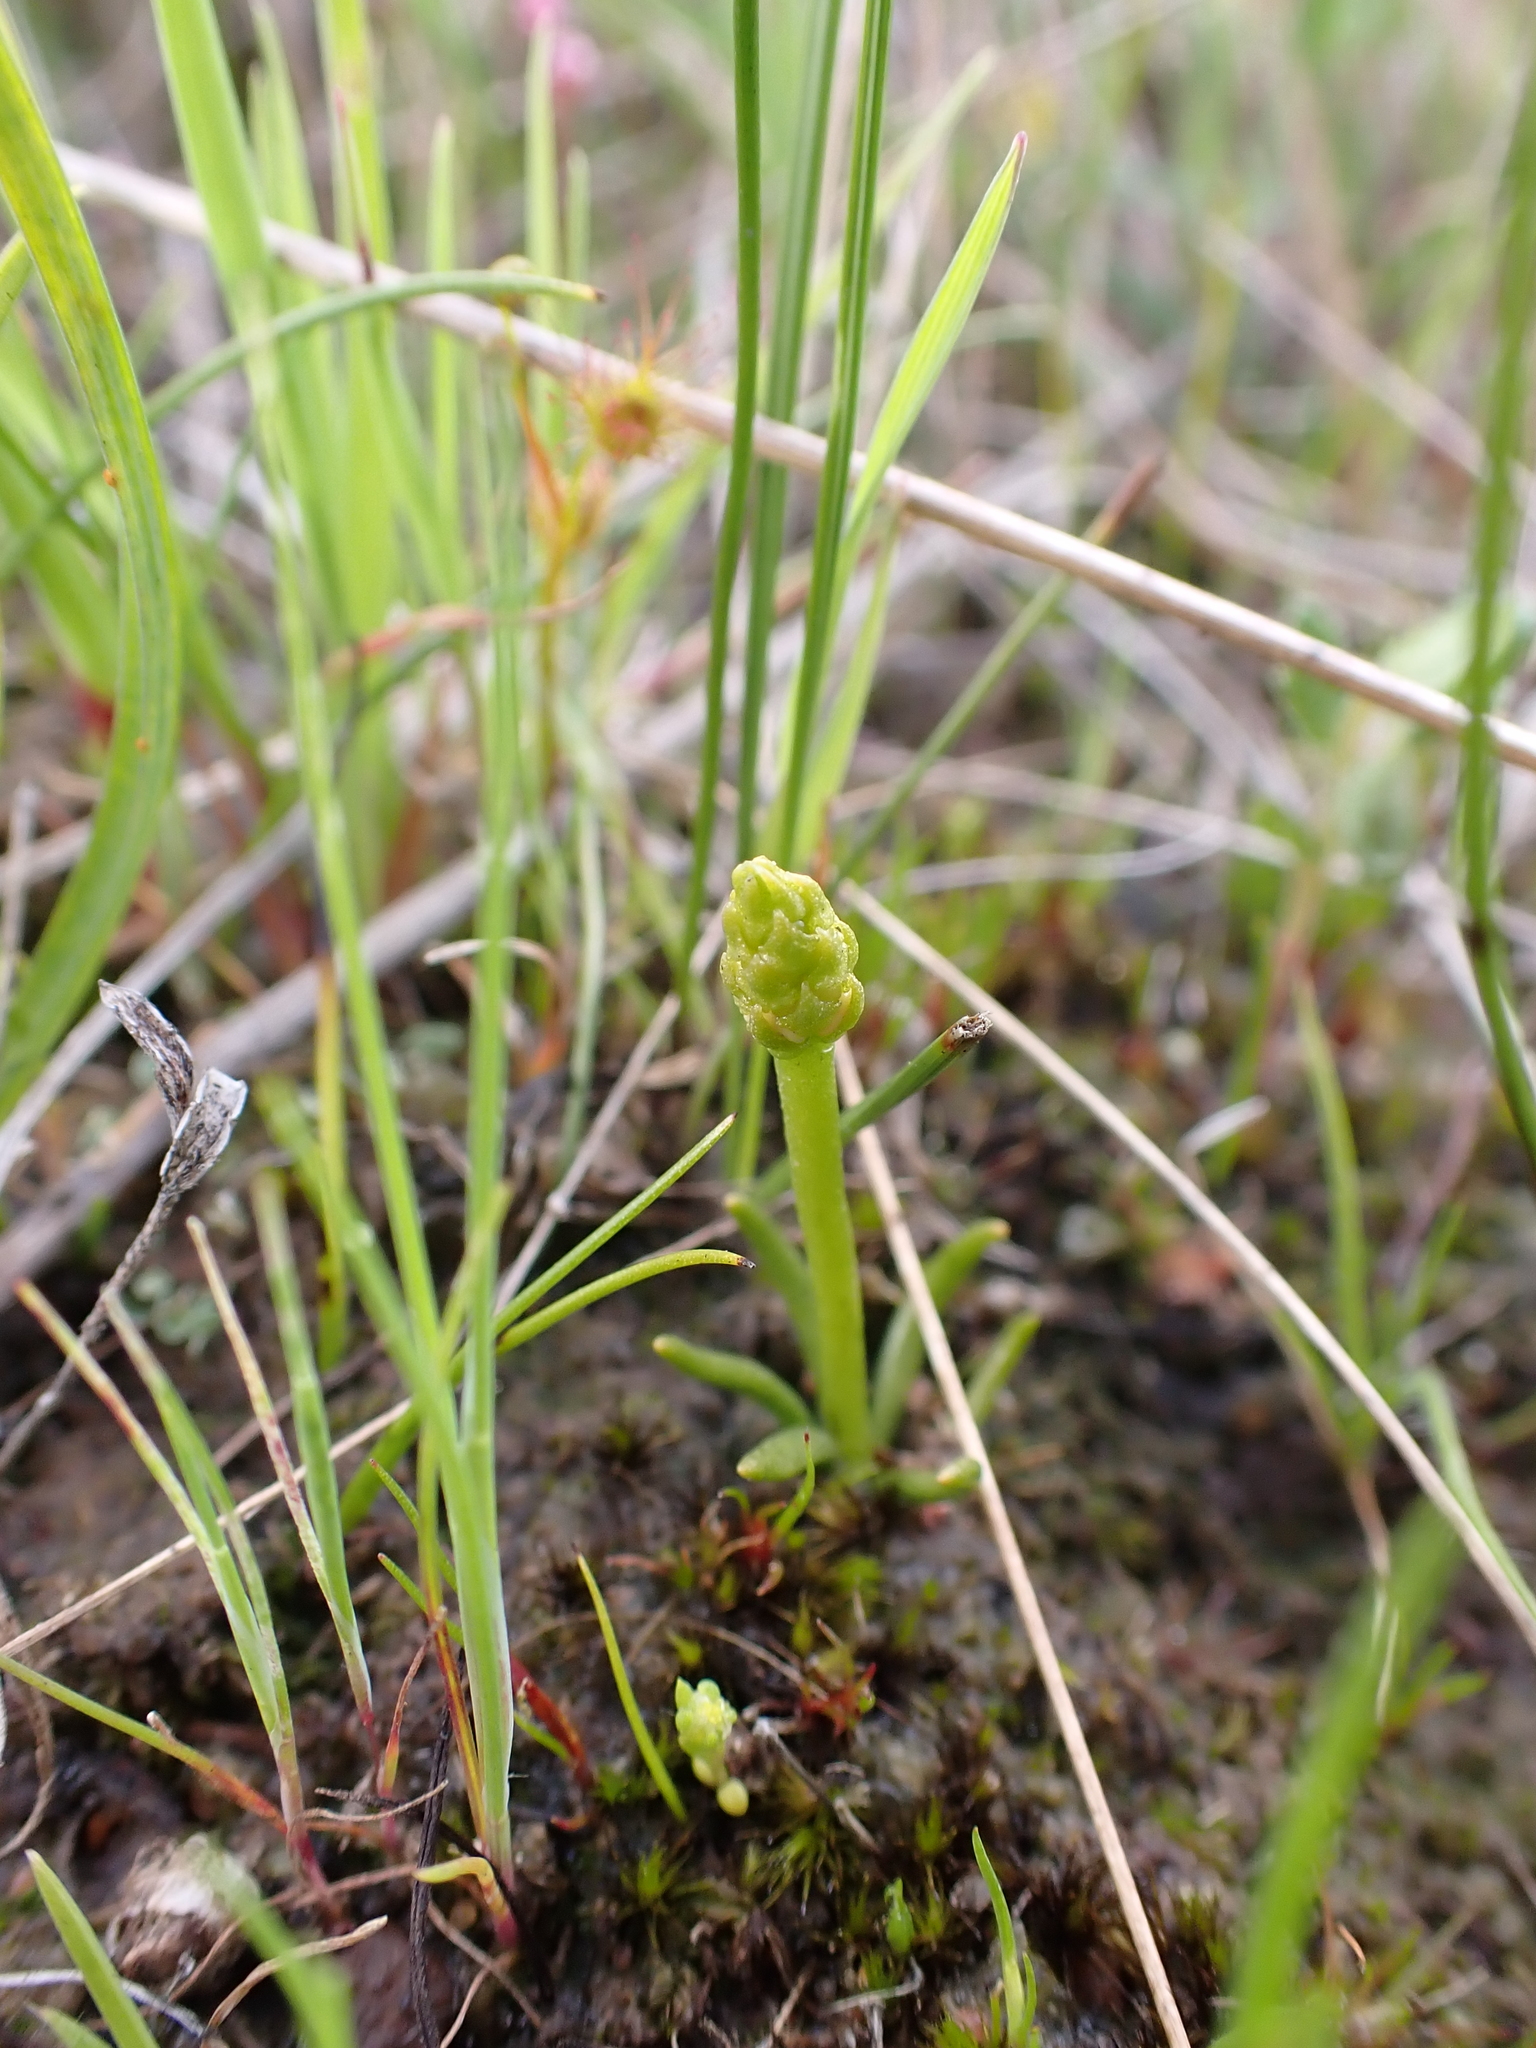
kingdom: Plantae
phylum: Tracheophyta
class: Lycopodiopsida
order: Lycopodiales
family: Lycopodiaceae
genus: Phylloglossum
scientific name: Phylloglossum drummondii
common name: Pigmy-club-moss
